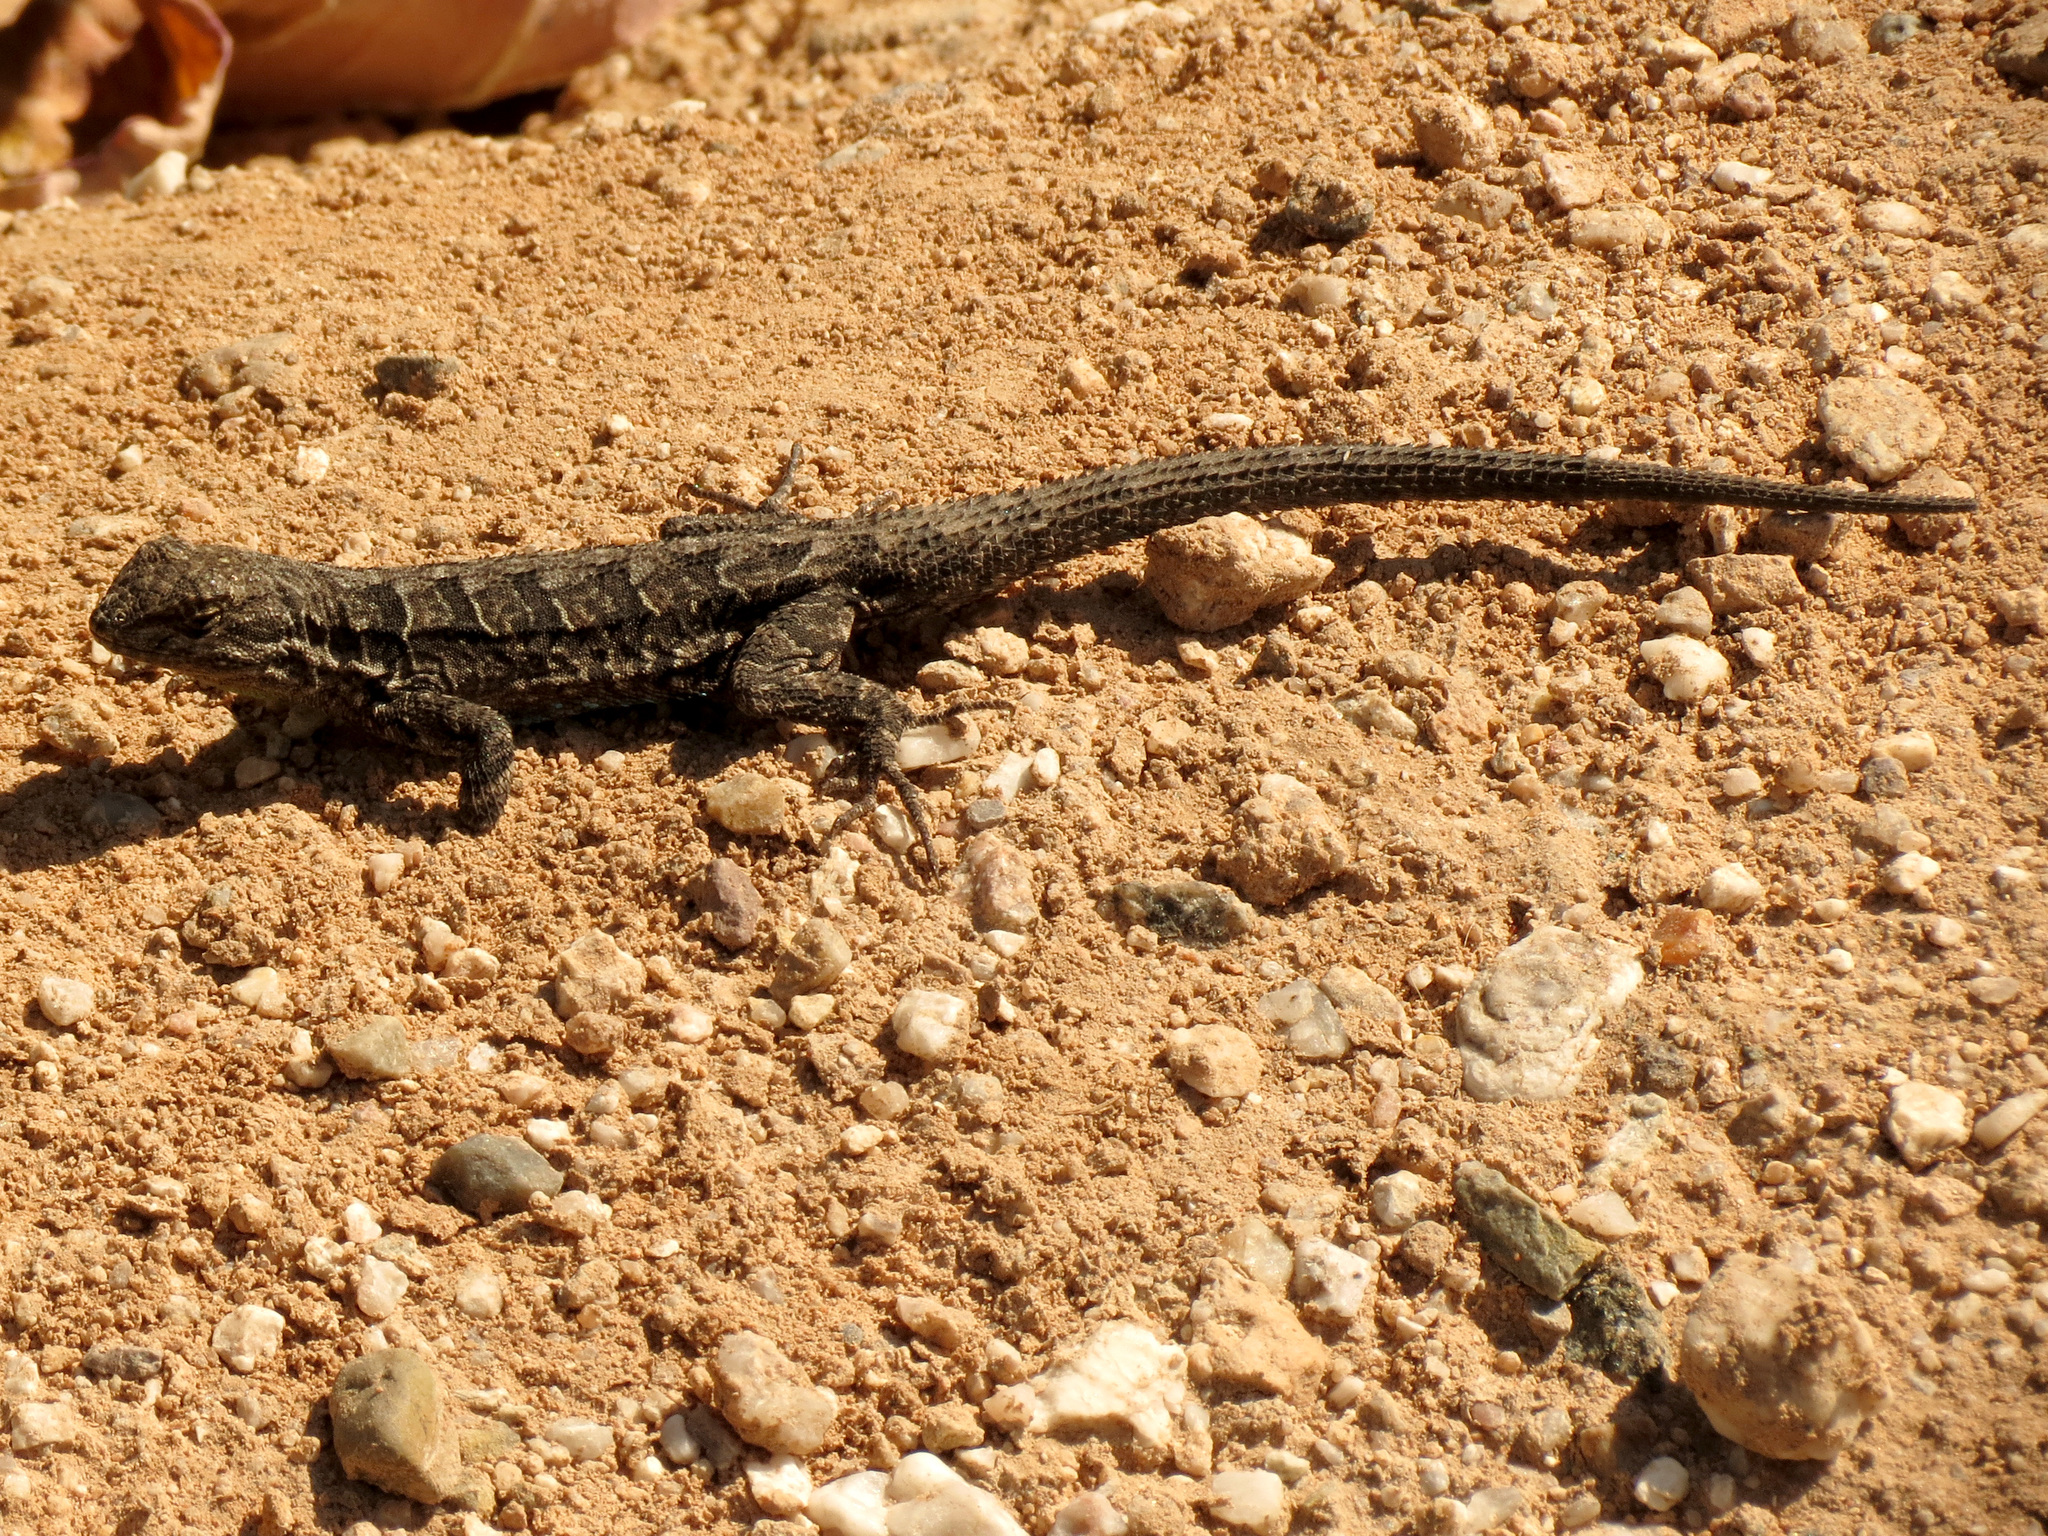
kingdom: Animalia
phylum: Chordata
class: Squamata
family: Phrynosomatidae
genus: Urosaurus
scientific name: Urosaurus ornatus
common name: Ornate tree lizard
